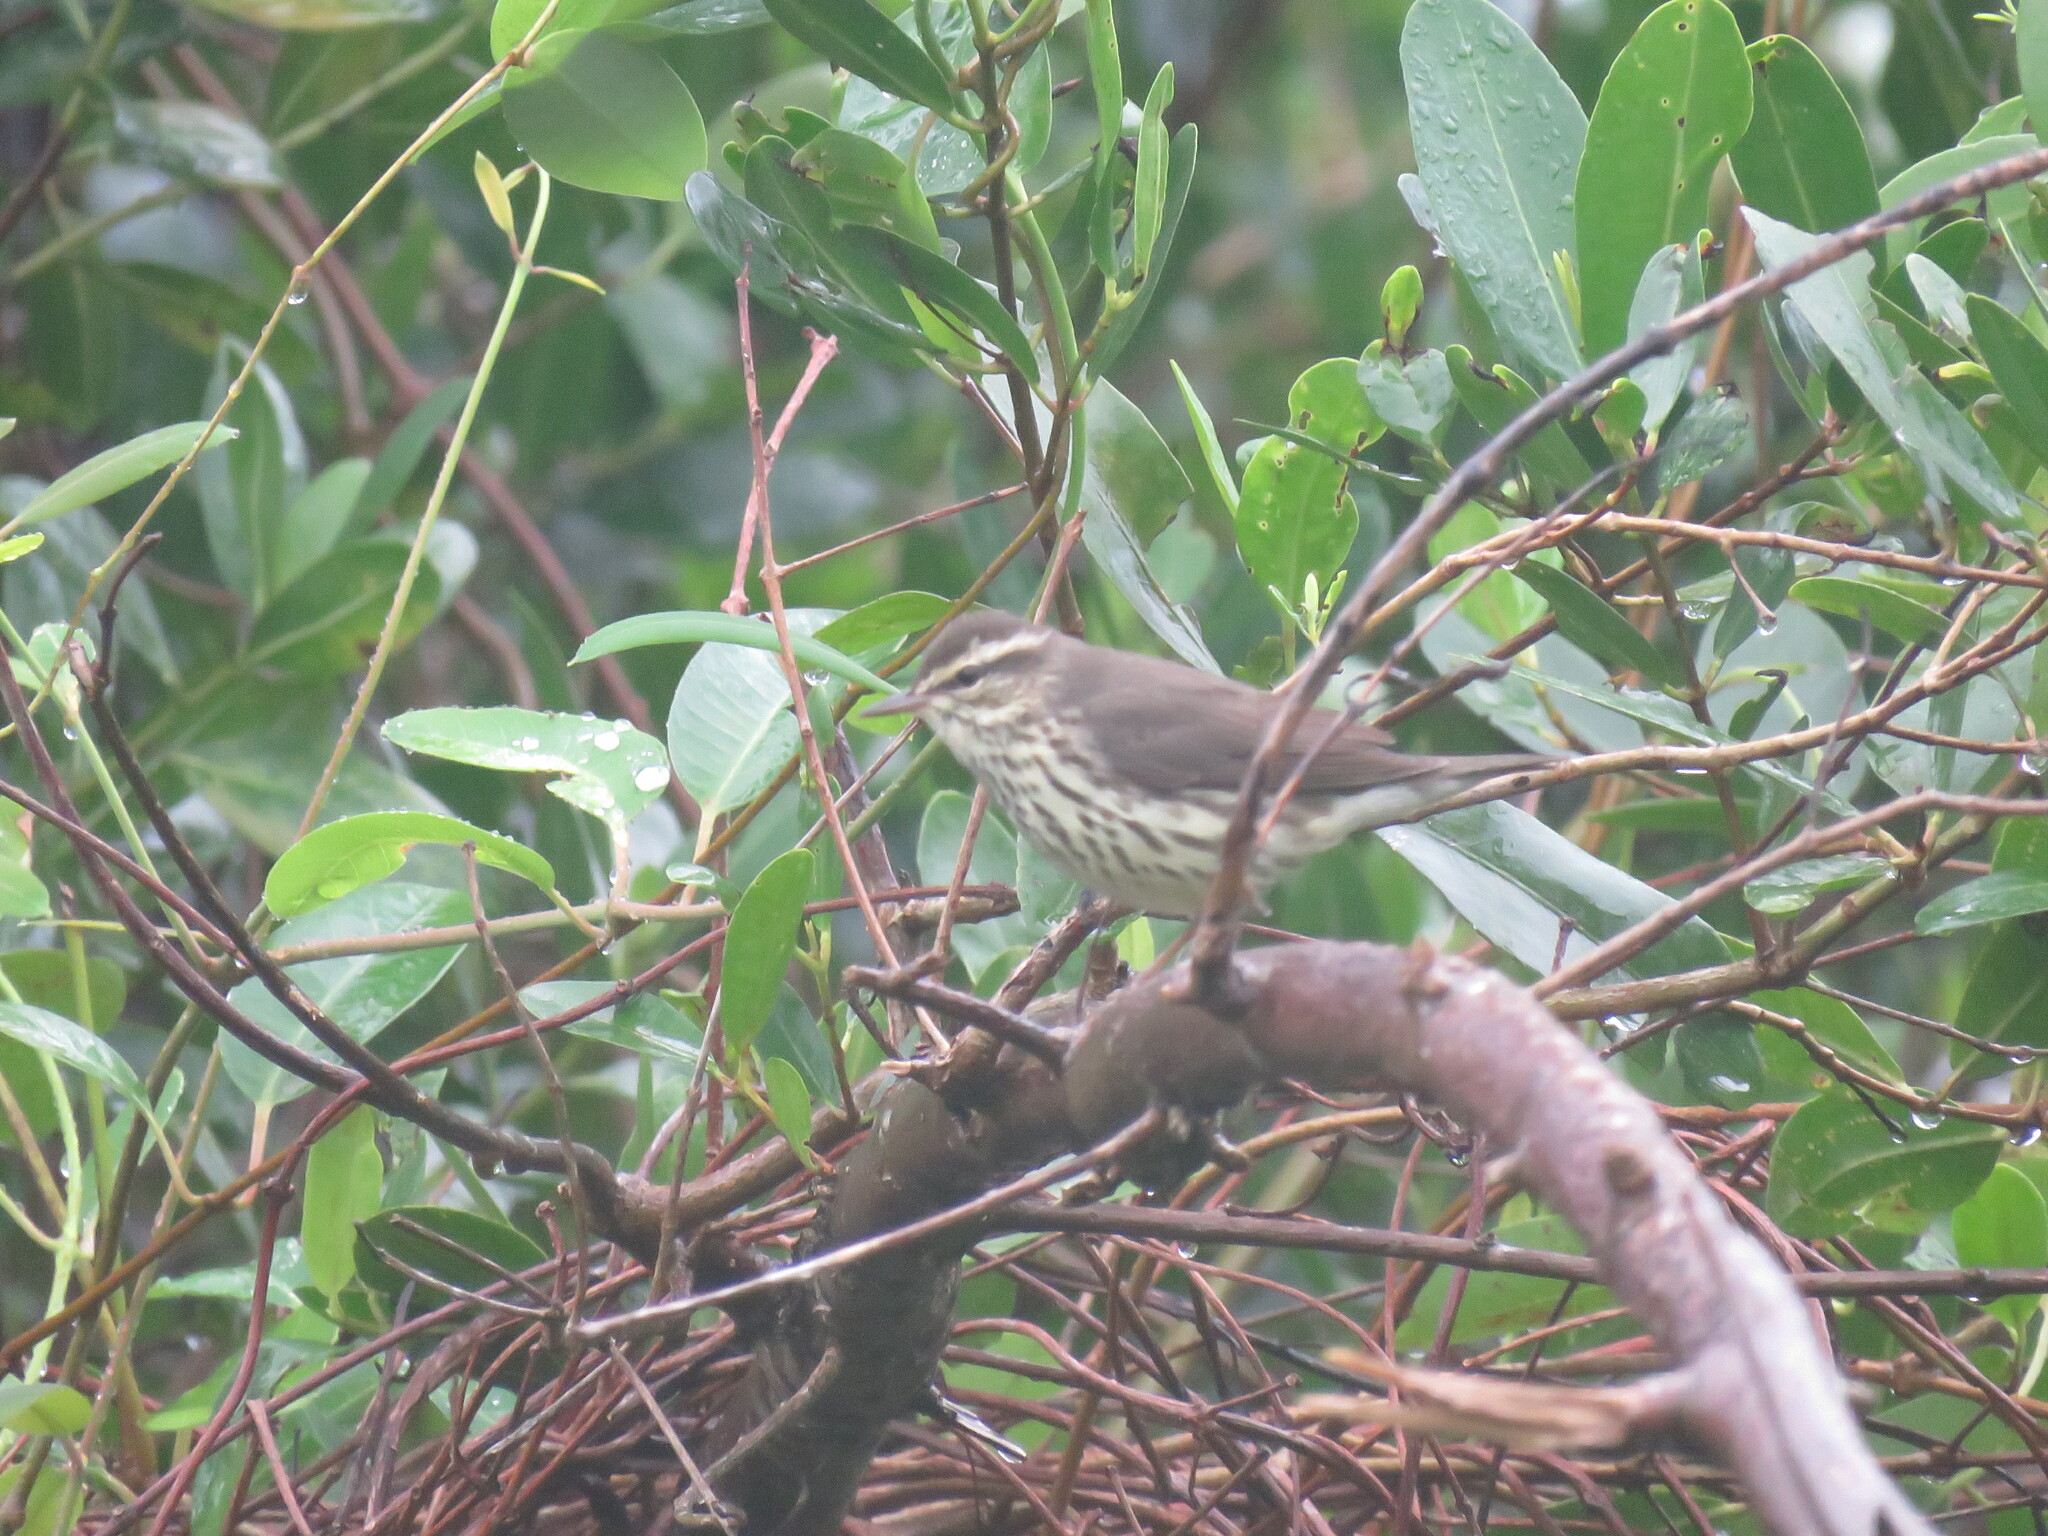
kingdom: Animalia
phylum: Chordata
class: Aves
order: Passeriformes
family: Parulidae
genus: Parkesia
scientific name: Parkesia noveboracensis
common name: Northern waterthrush
